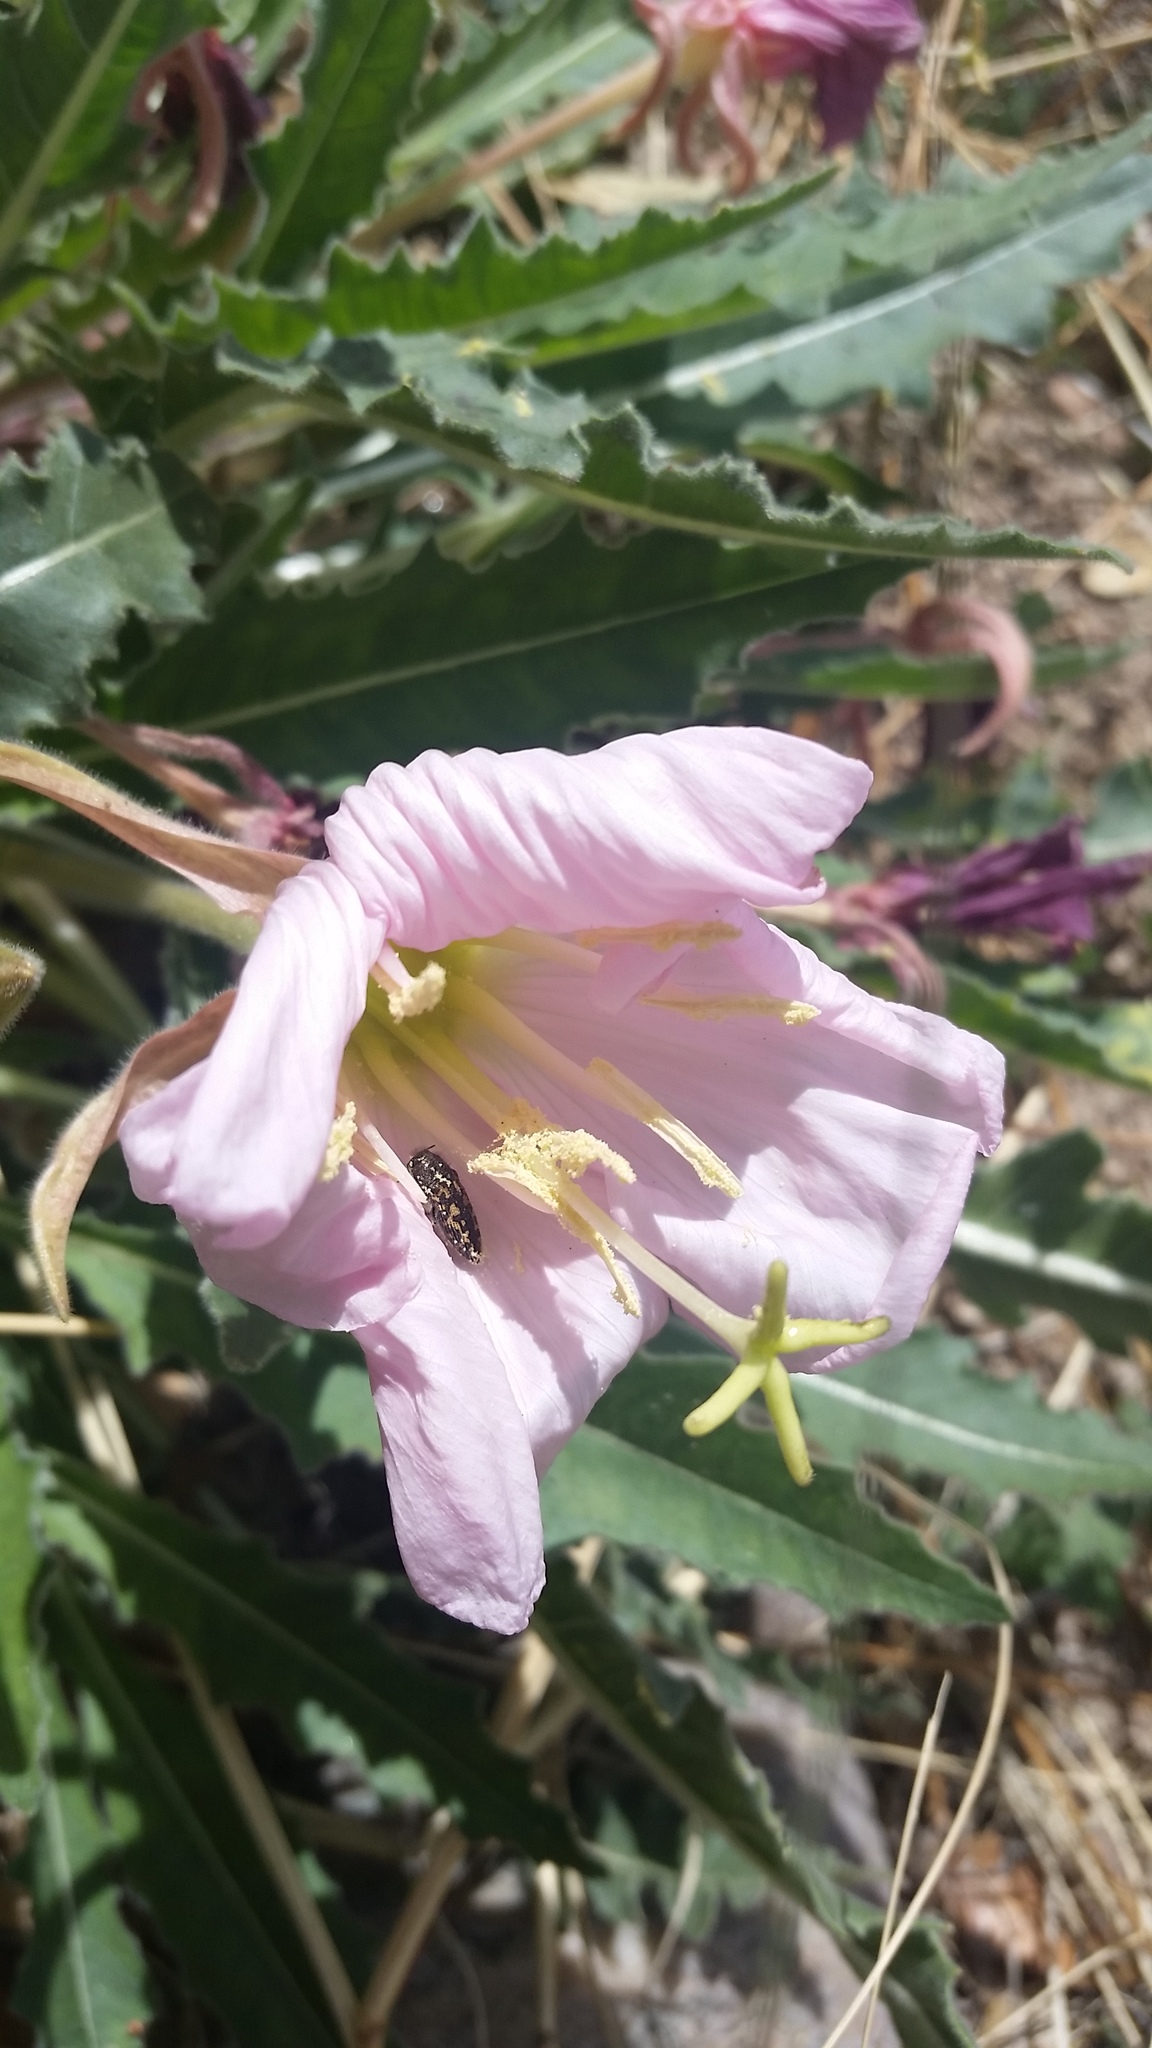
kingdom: Plantae
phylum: Tracheophyta
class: Magnoliopsida
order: Myrtales
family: Onagraceae
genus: Oenothera
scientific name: Oenothera cespitosa
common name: Tufted evening-primrose
